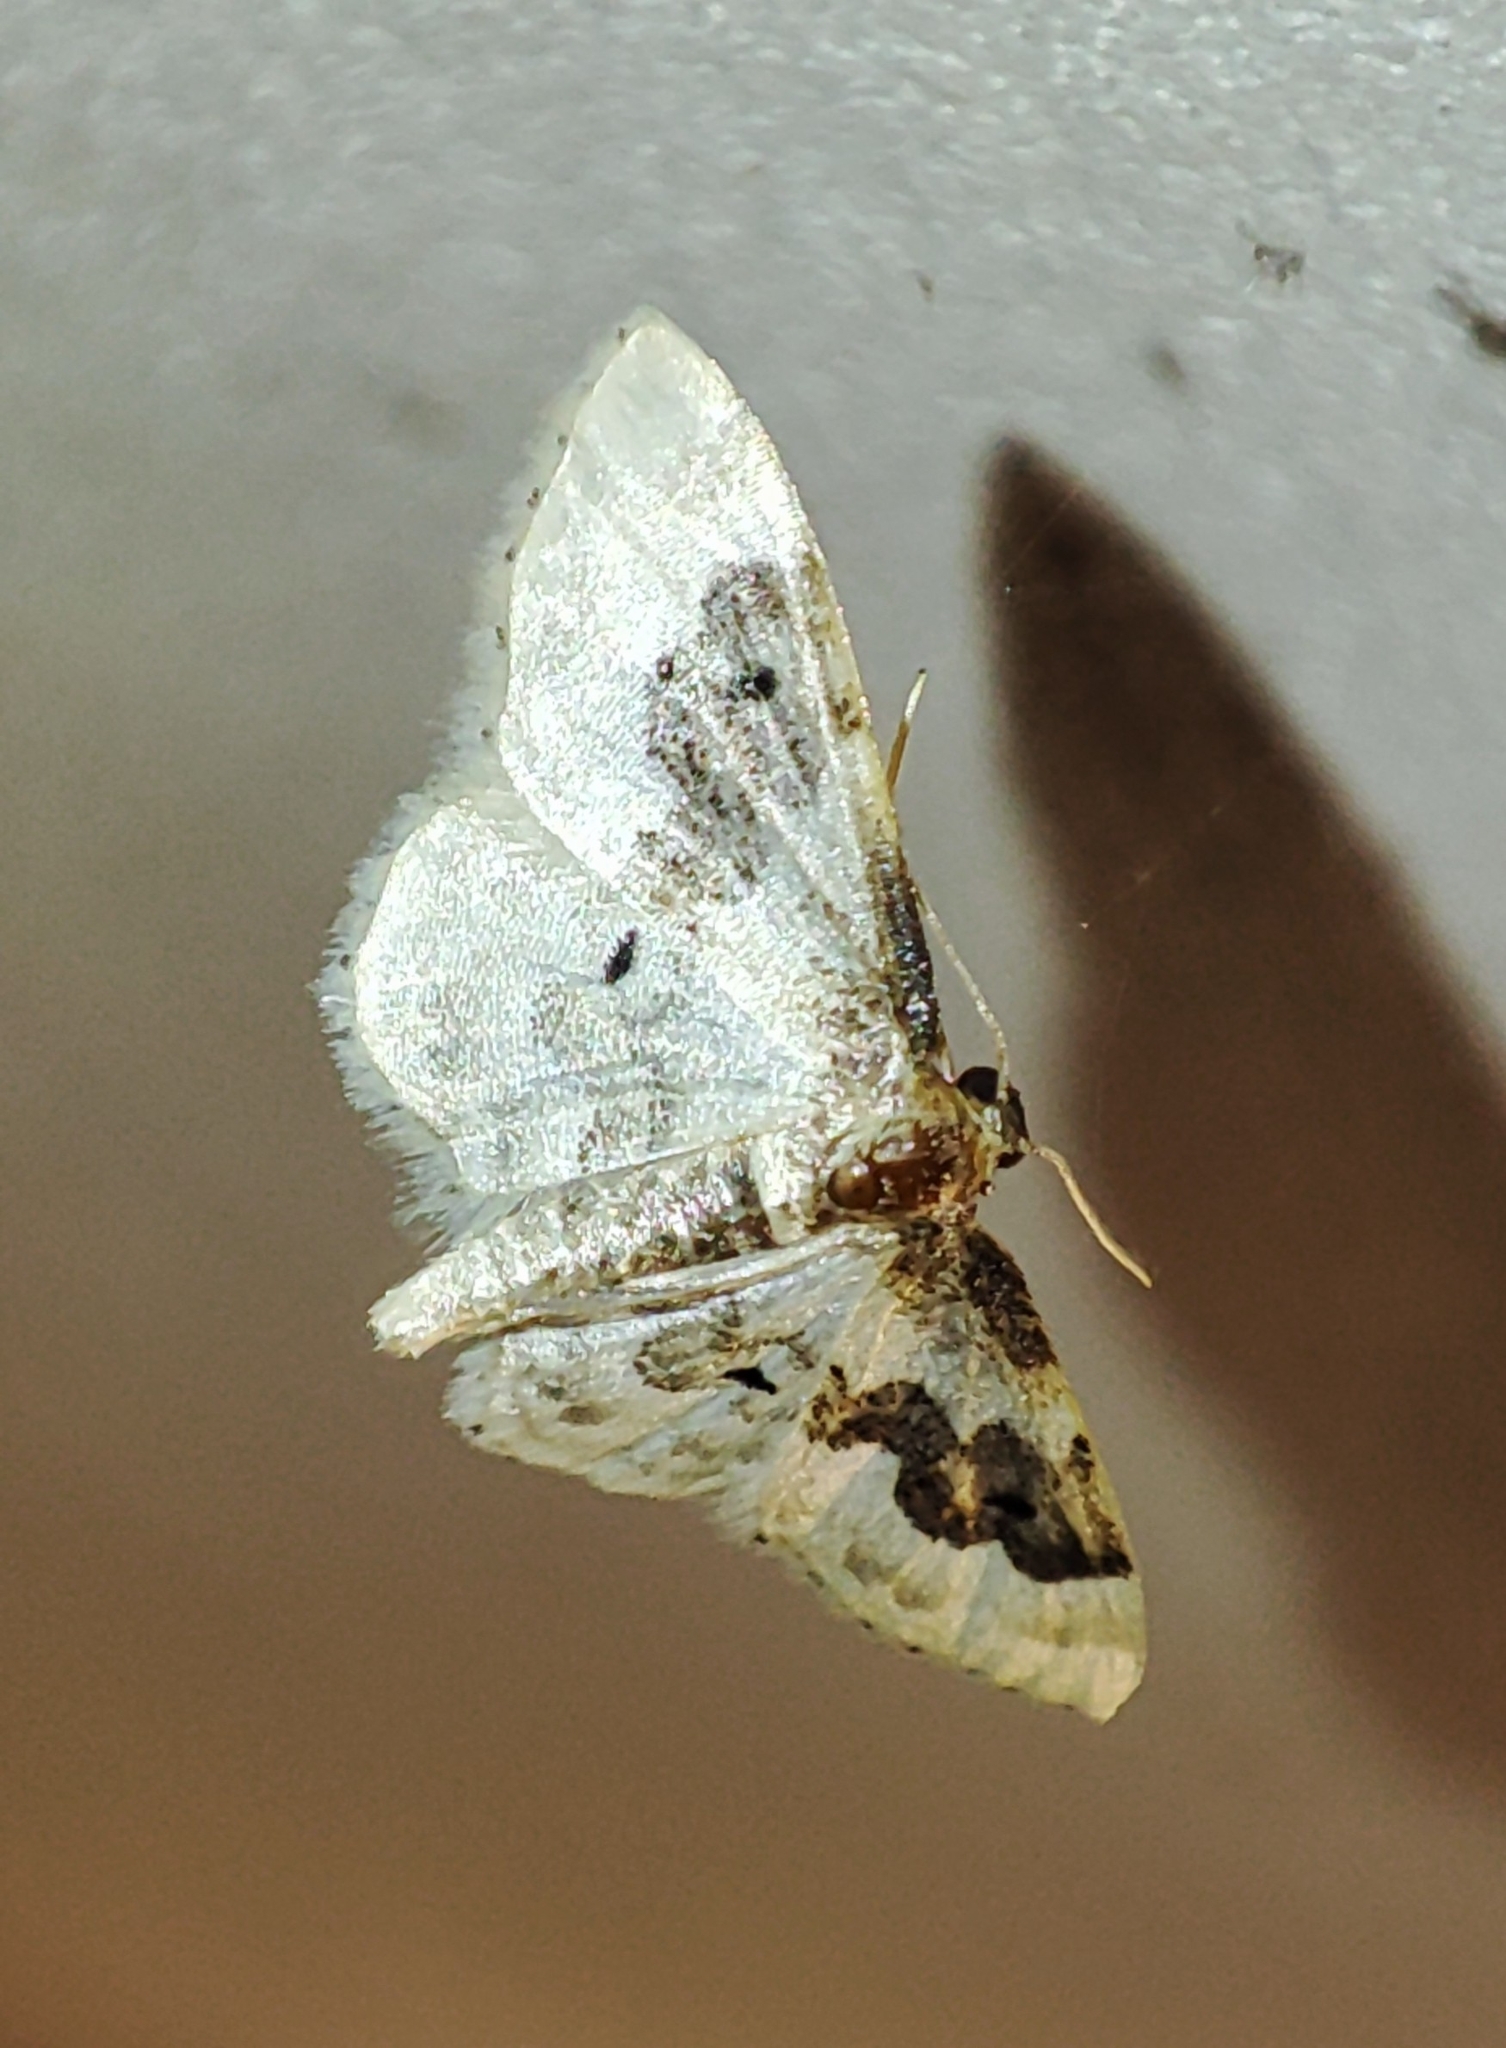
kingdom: Animalia
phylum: Arthropoda
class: Insecta
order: Lepidoptera
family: Geometridae
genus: Idaea
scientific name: Idaea rusticata
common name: Least carpet
